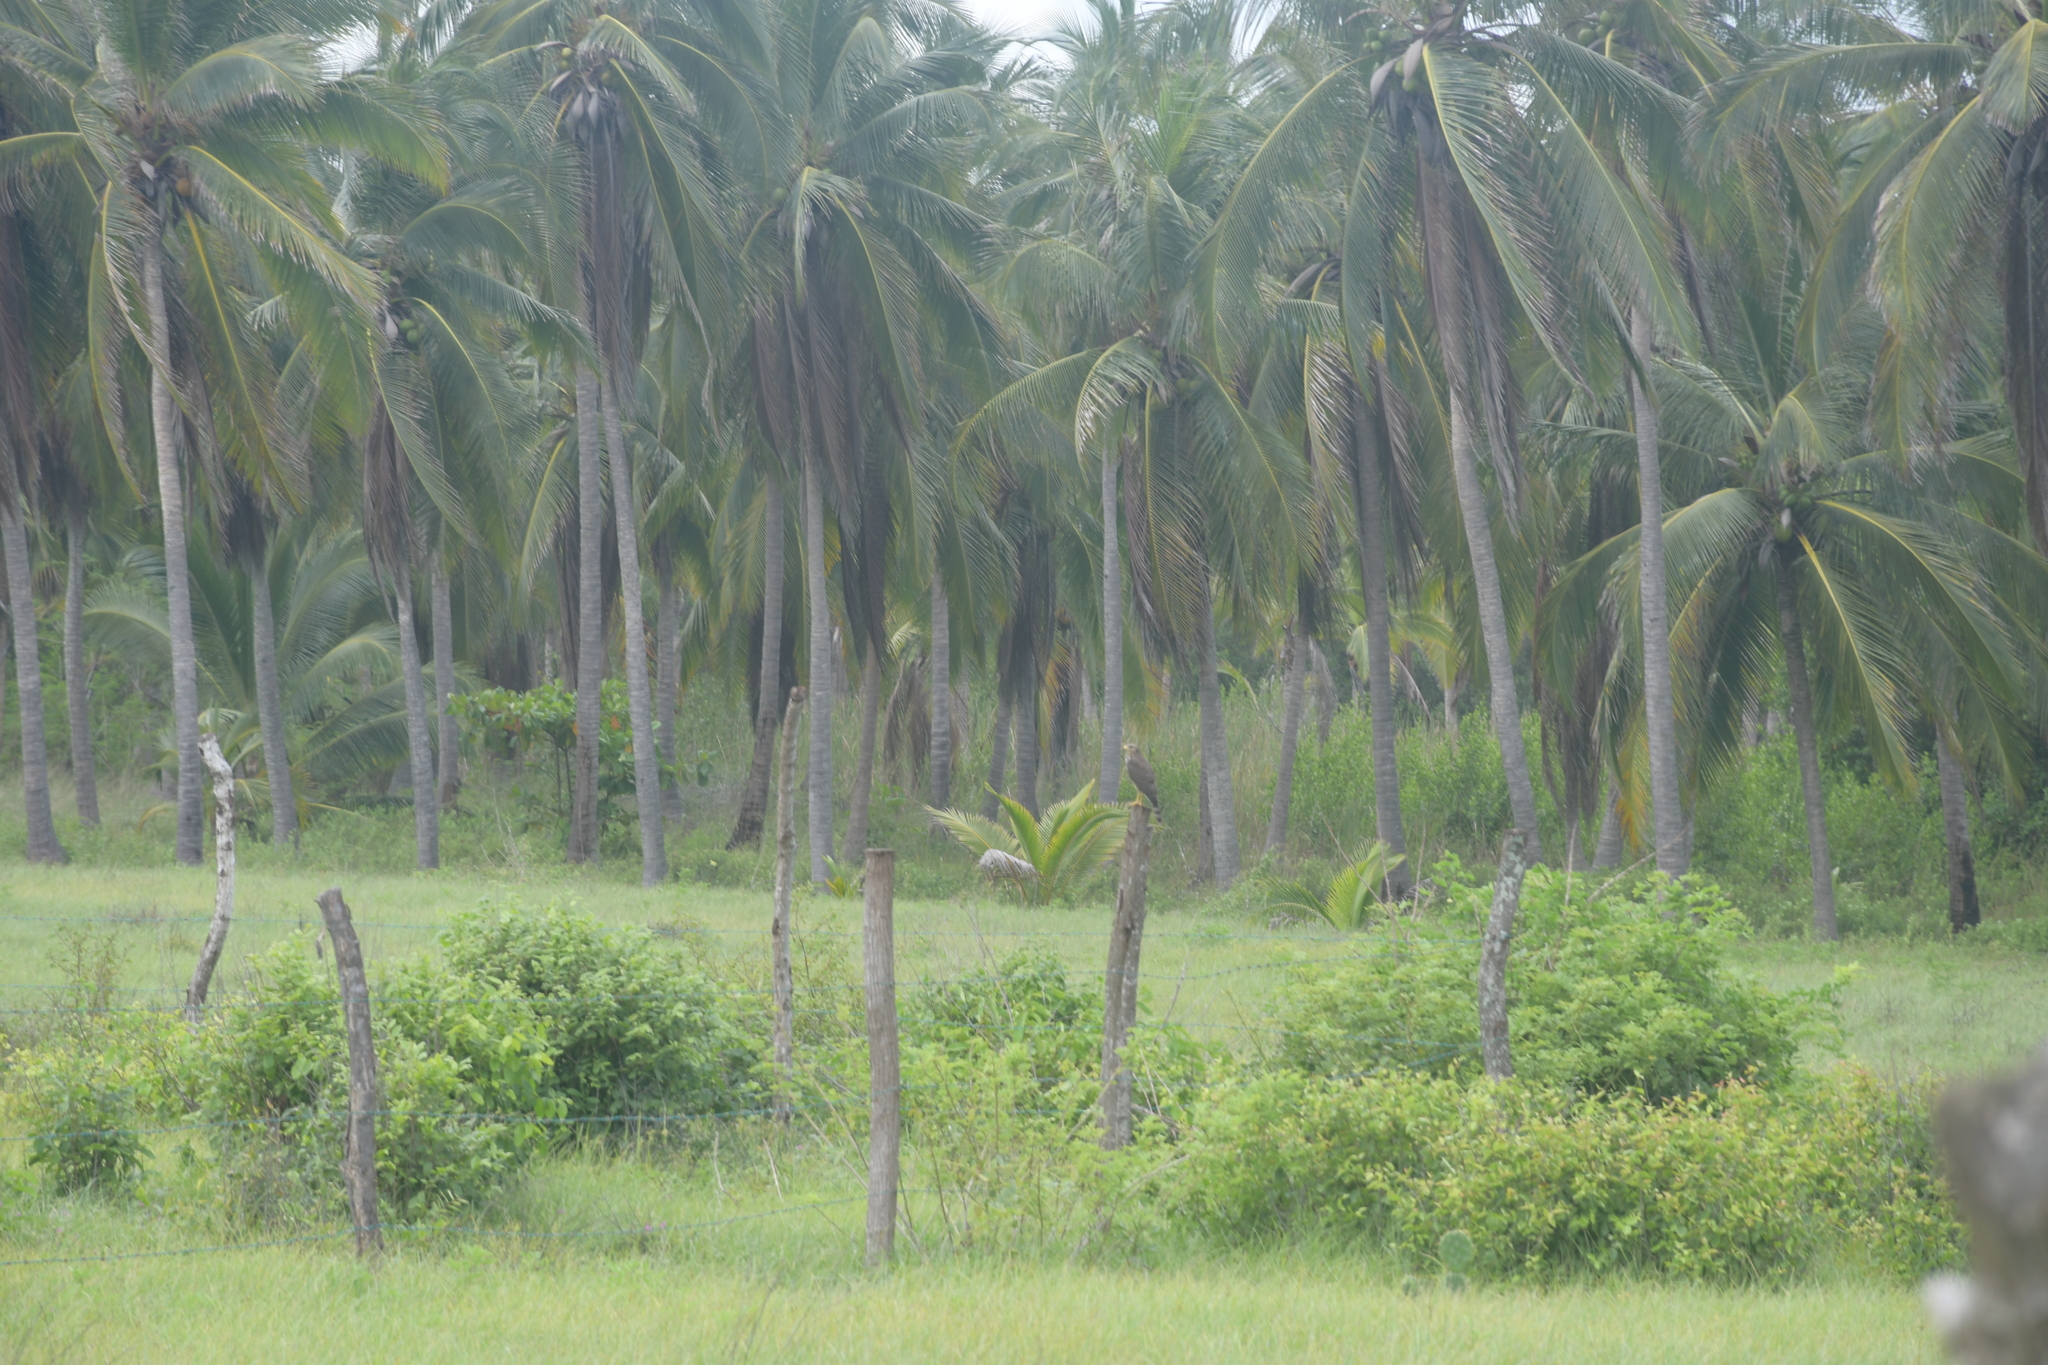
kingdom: Animalia
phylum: Chordata
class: Aves
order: Accipitriformes
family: Accipitridae
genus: Rupornis
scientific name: Rupornis magnirostris
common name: Roadside hawk
